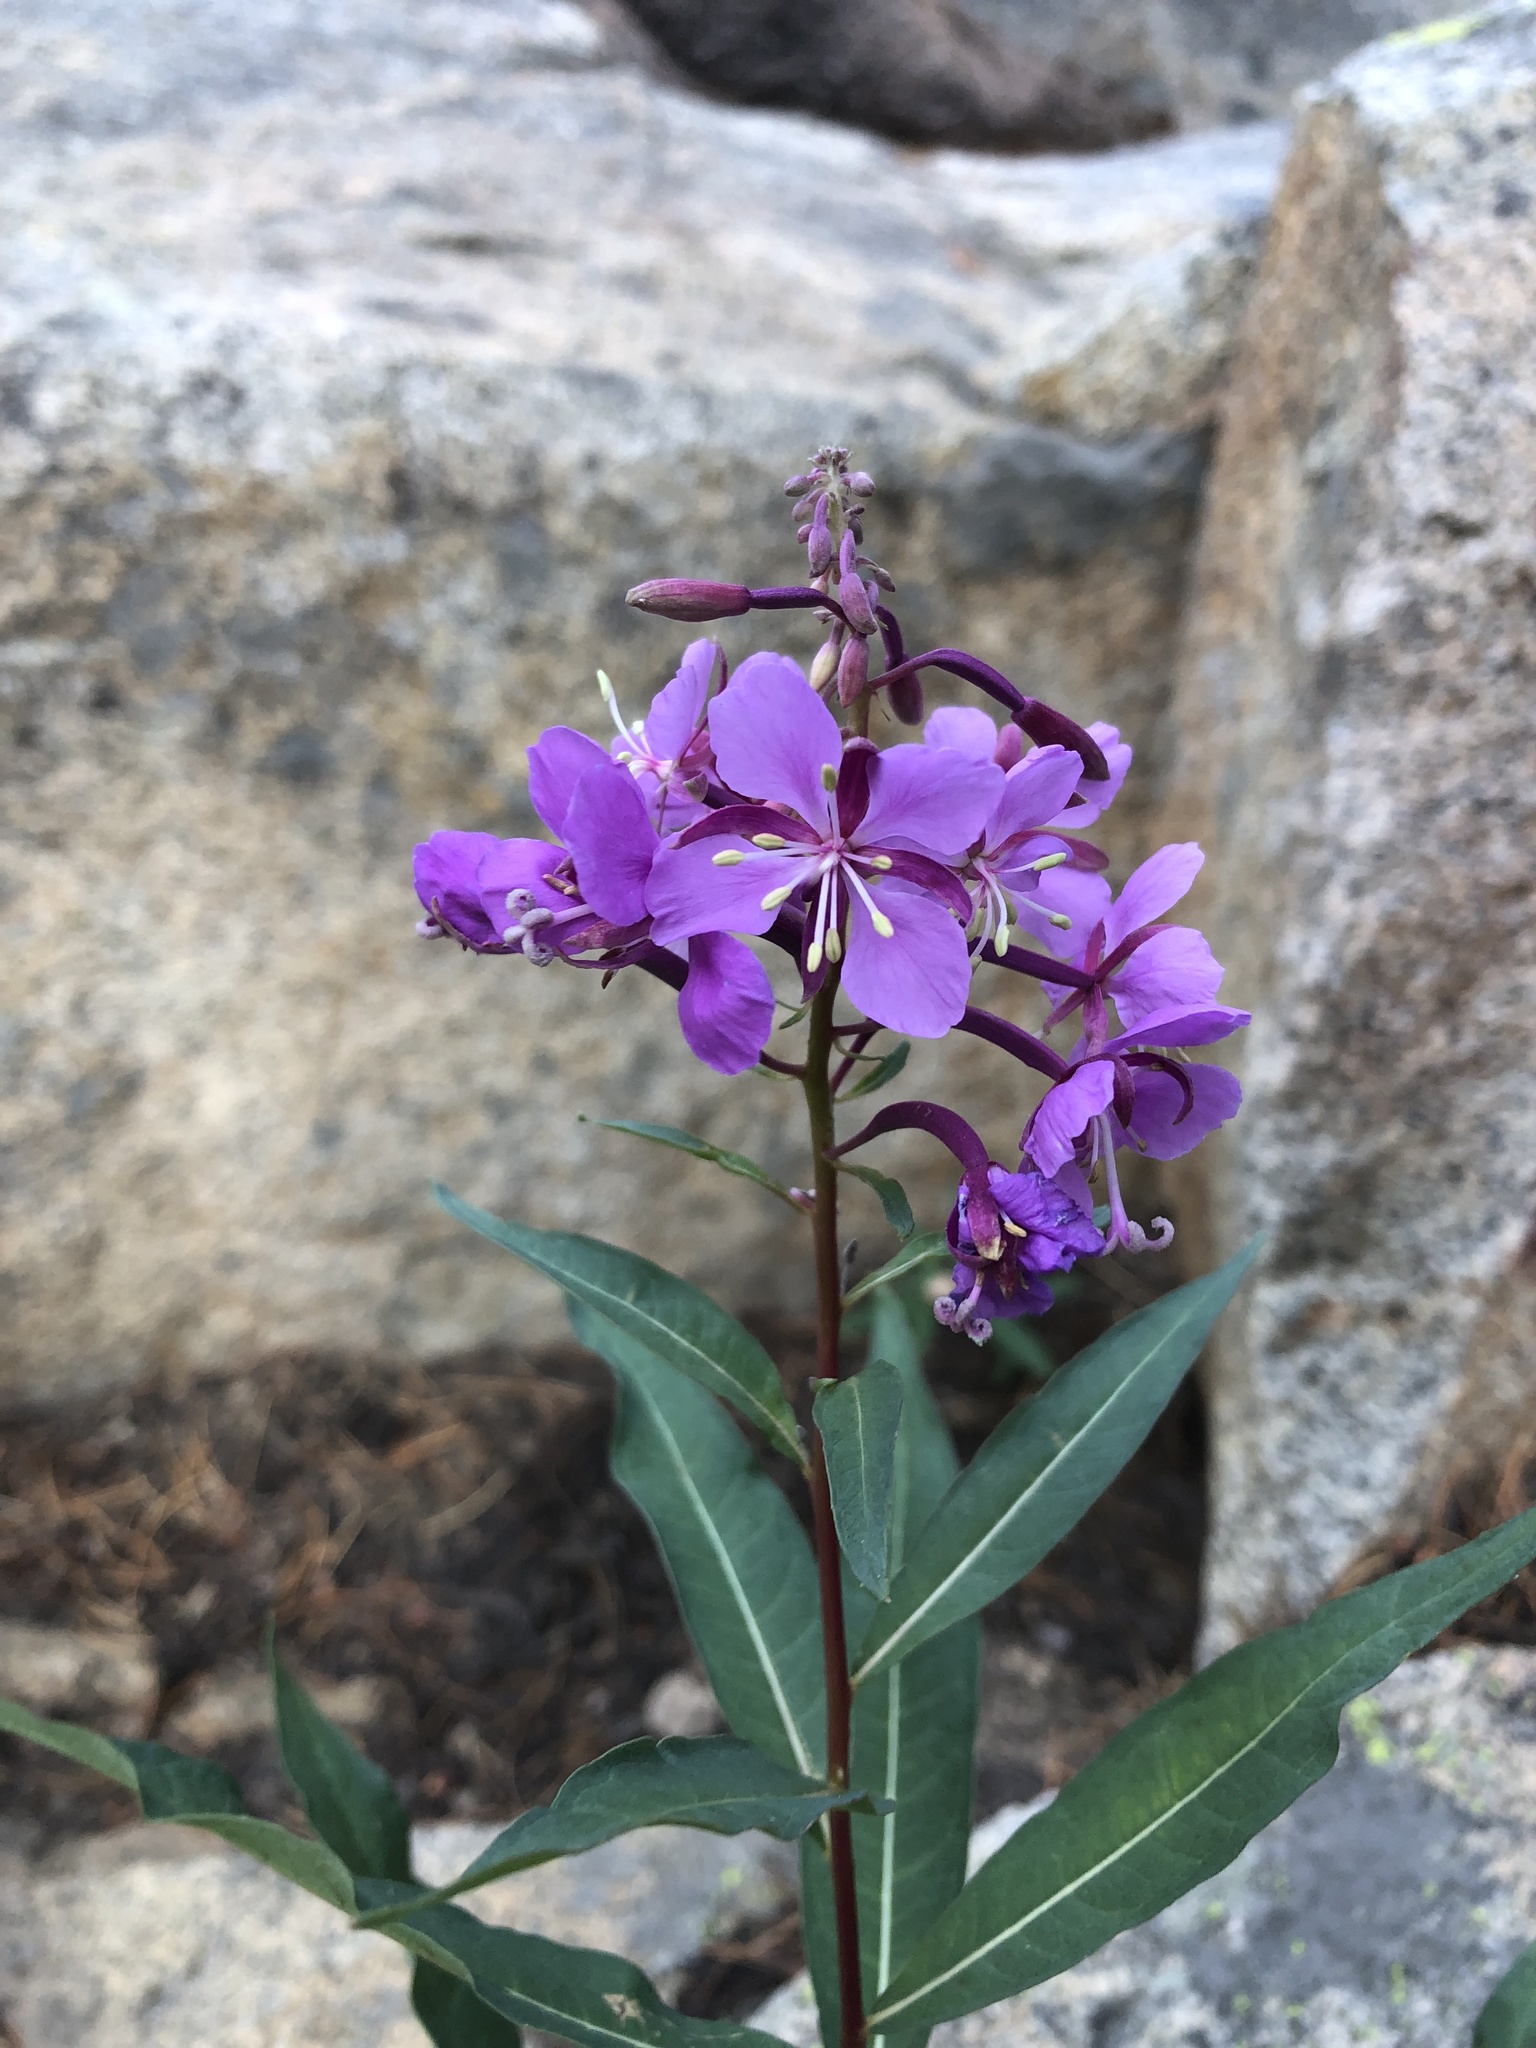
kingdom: Plantae
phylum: Tracheophyta
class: Magnoliopsida
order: Myrtales
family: Onagraceae
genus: Chamaenerion
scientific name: Chamaenerion angustifolium
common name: Fireweed
